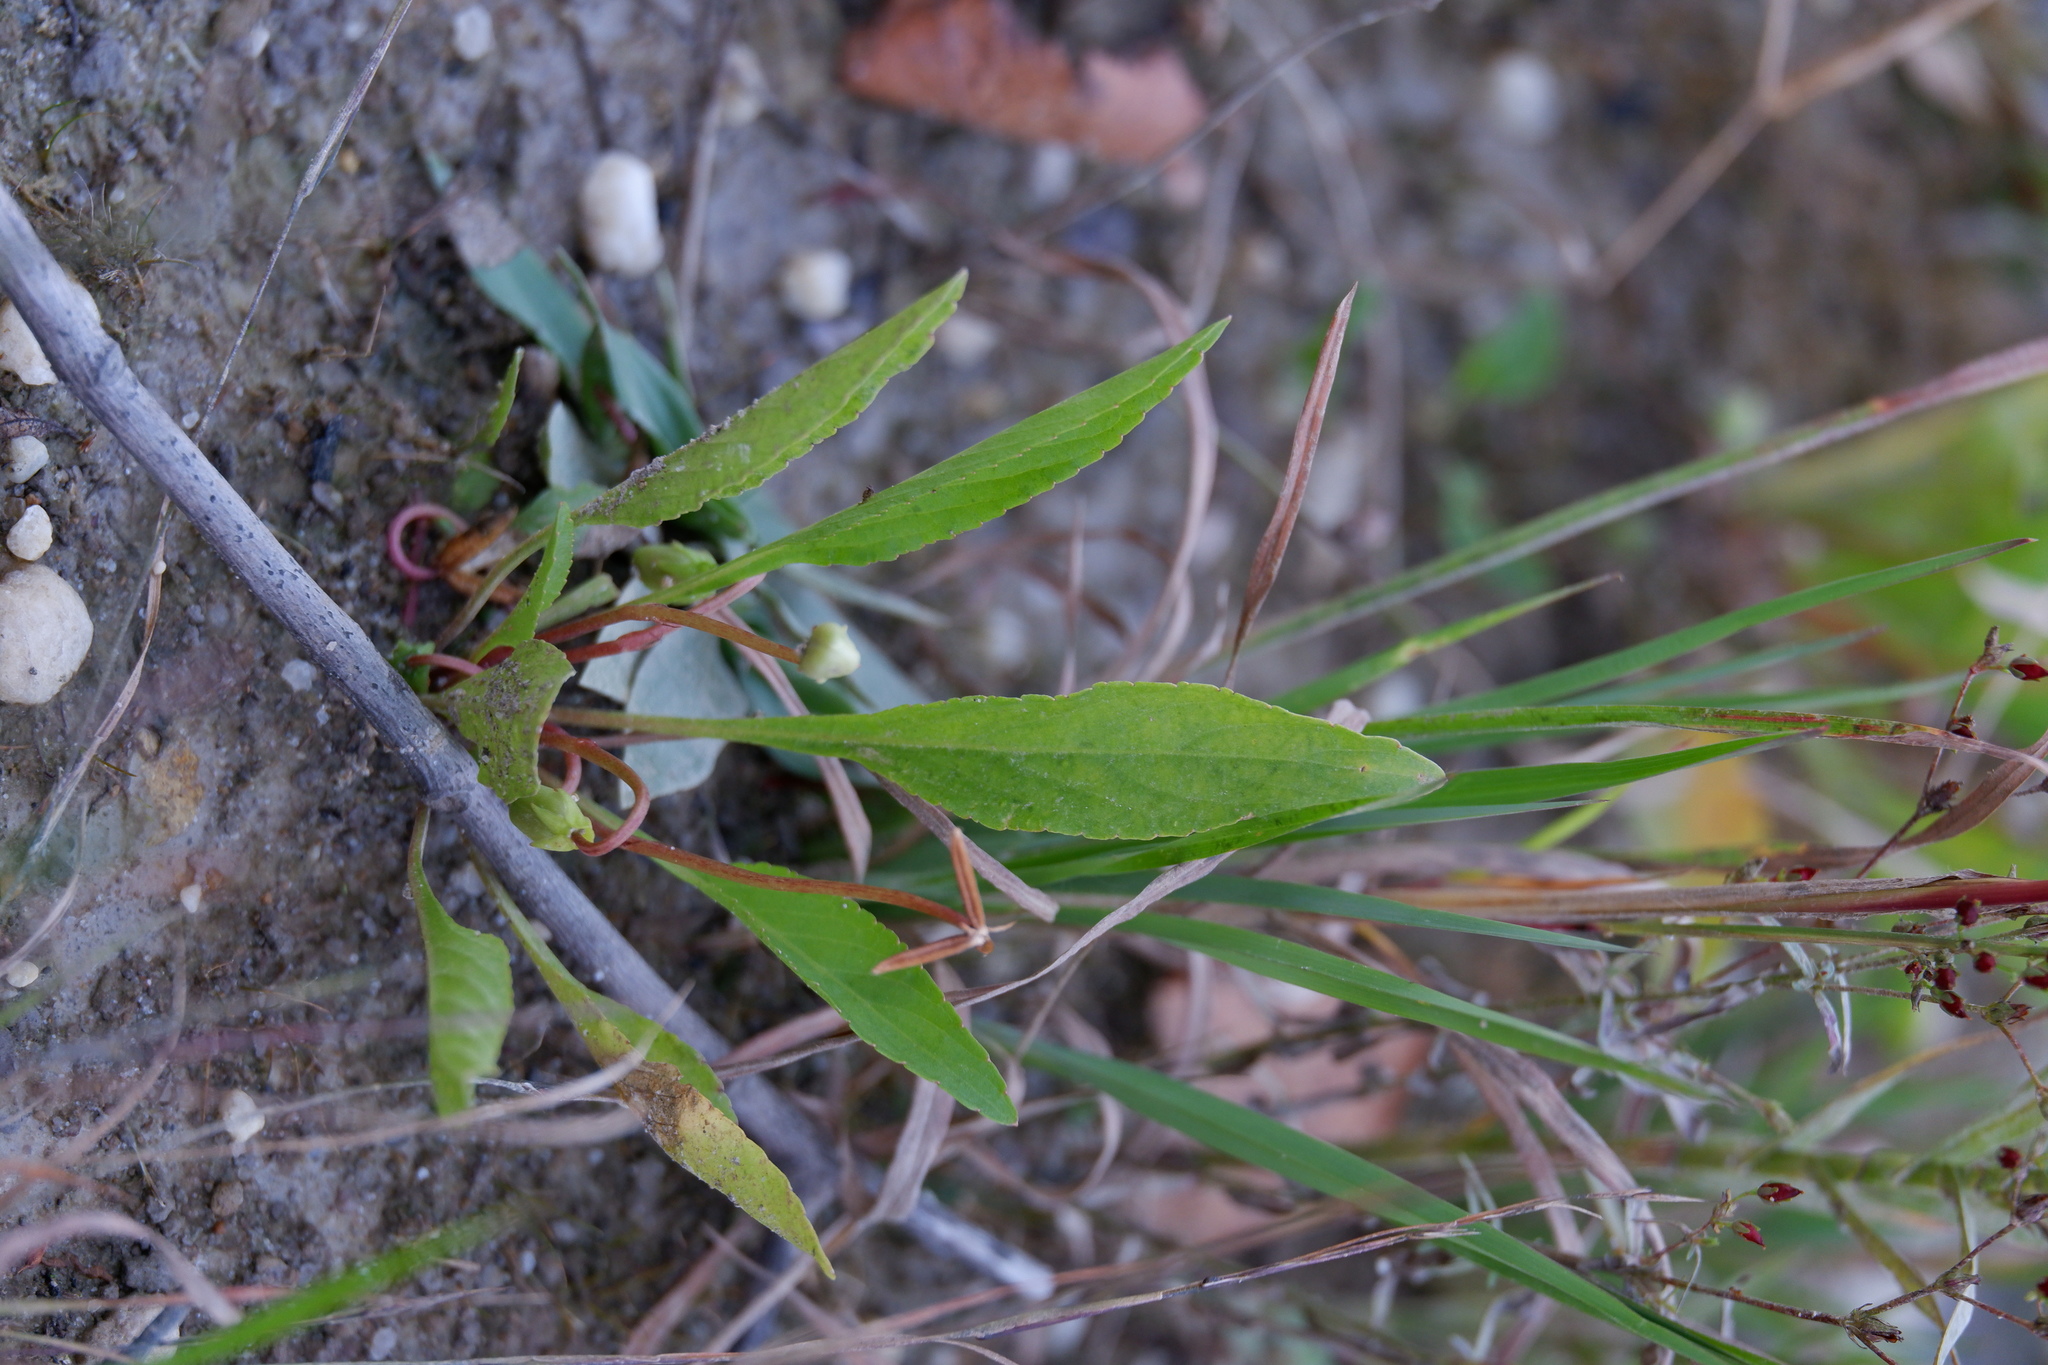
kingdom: Plantae
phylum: Tracheophyta
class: Magnoliopsida
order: Malpighiales
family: Violaceae
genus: Viola
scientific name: Viola lanceolata
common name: Bog white violet
